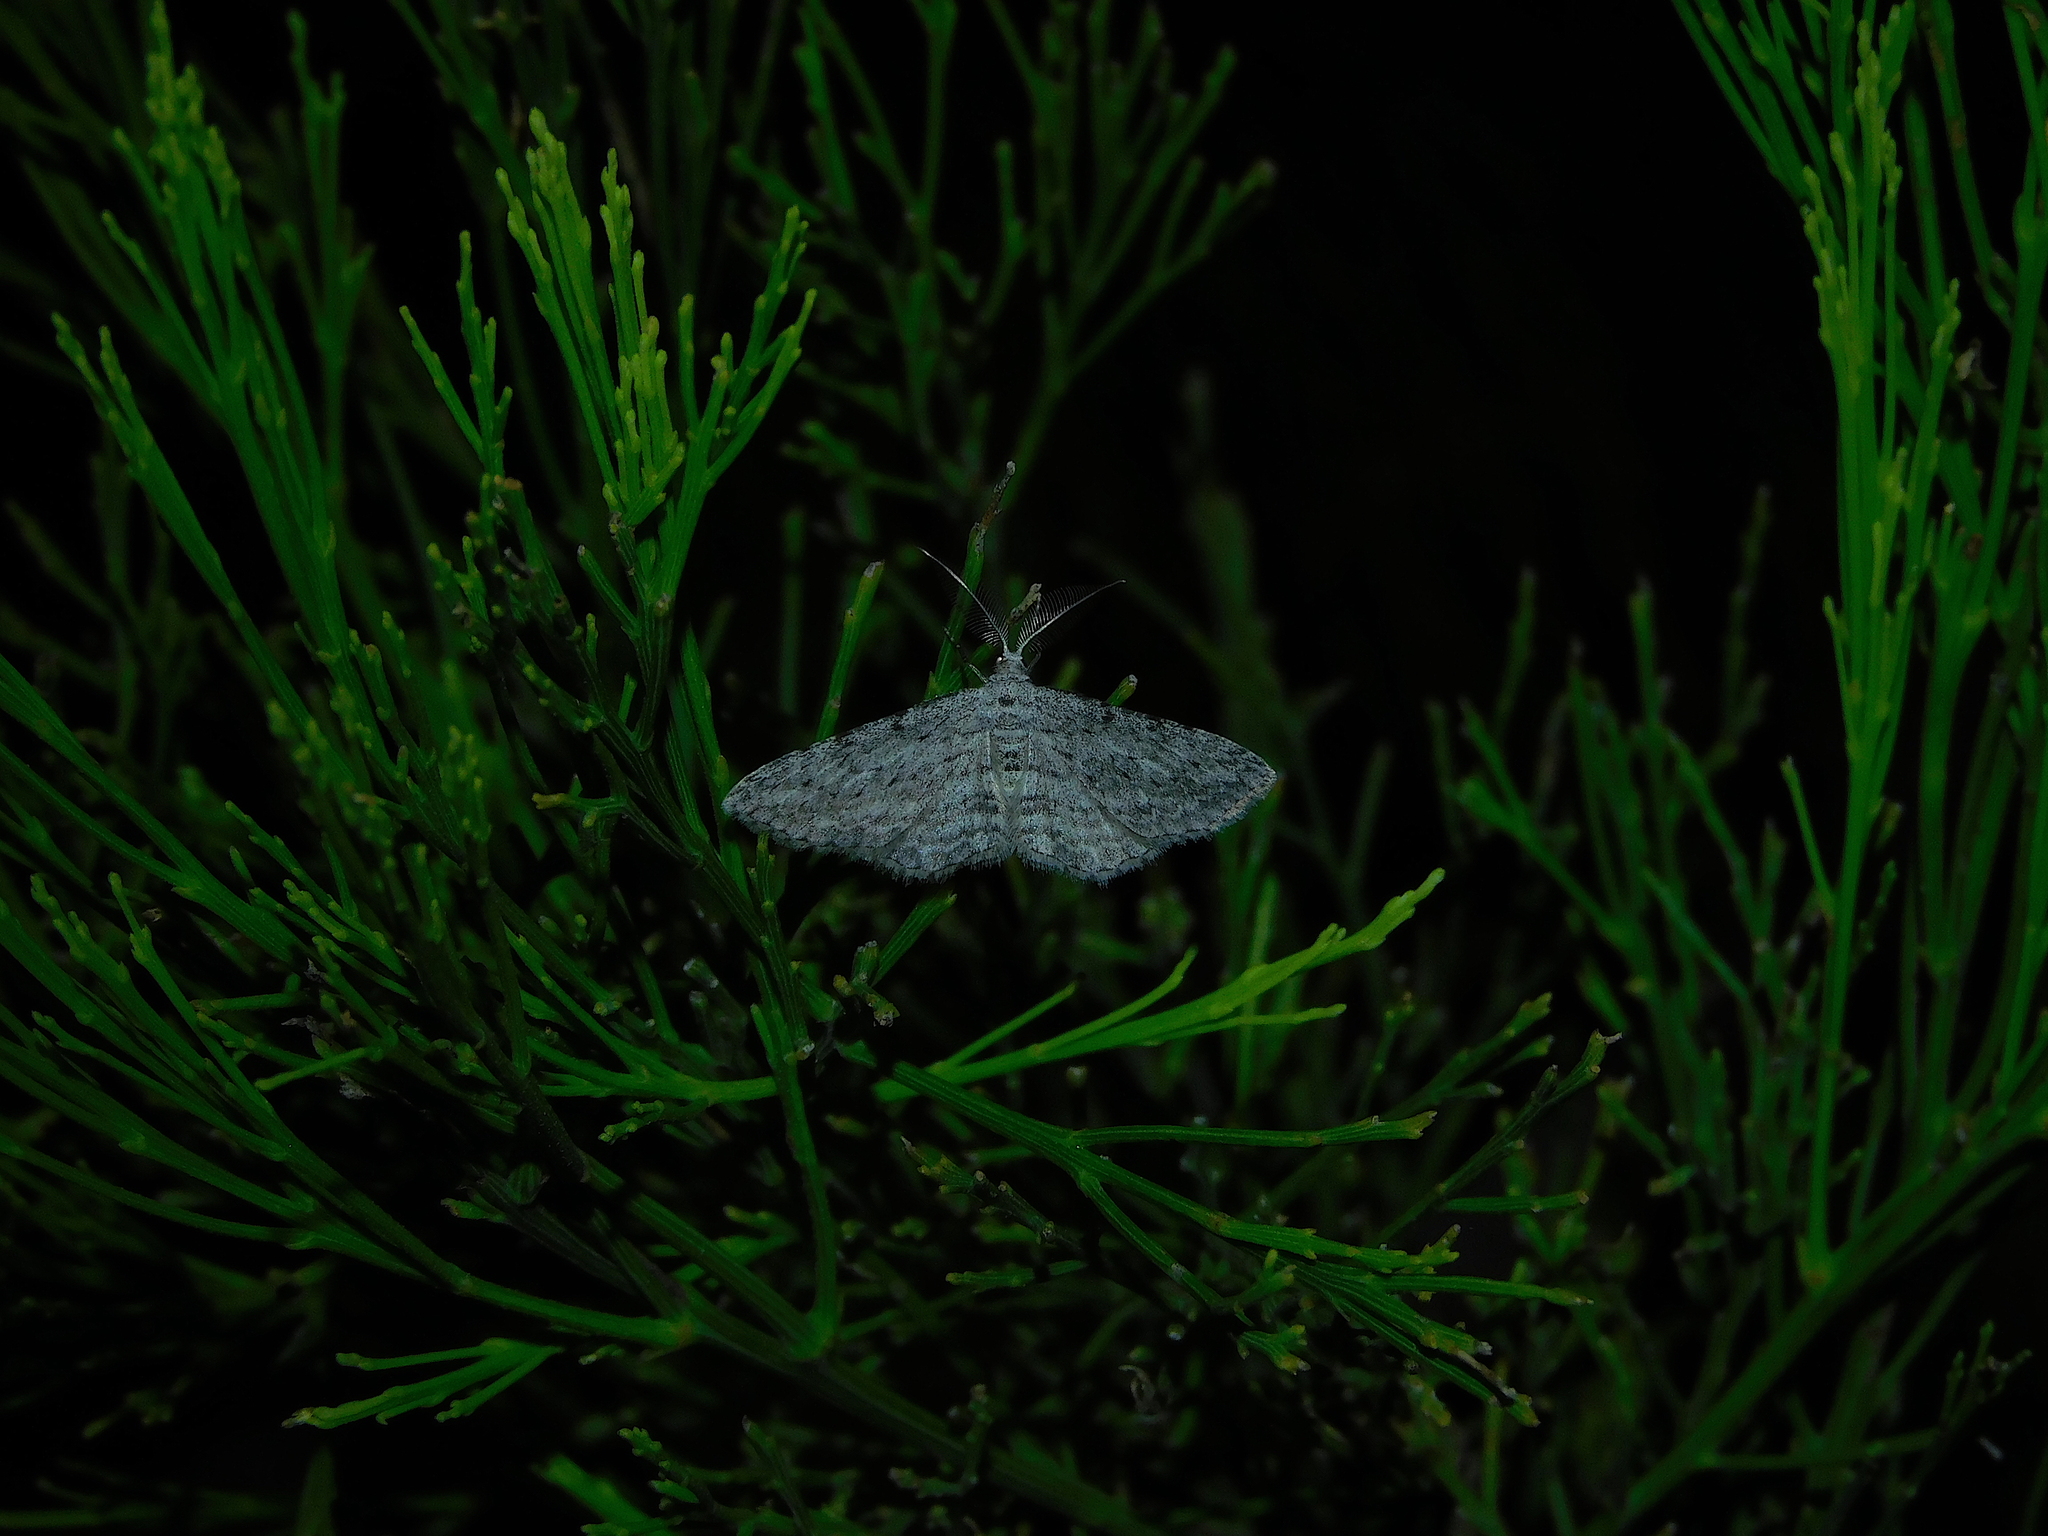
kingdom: Animalia
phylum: Arthropoda
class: Insecta
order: Lepidoptera
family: Geometridae
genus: Phelotis
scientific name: Phelotis cognata
